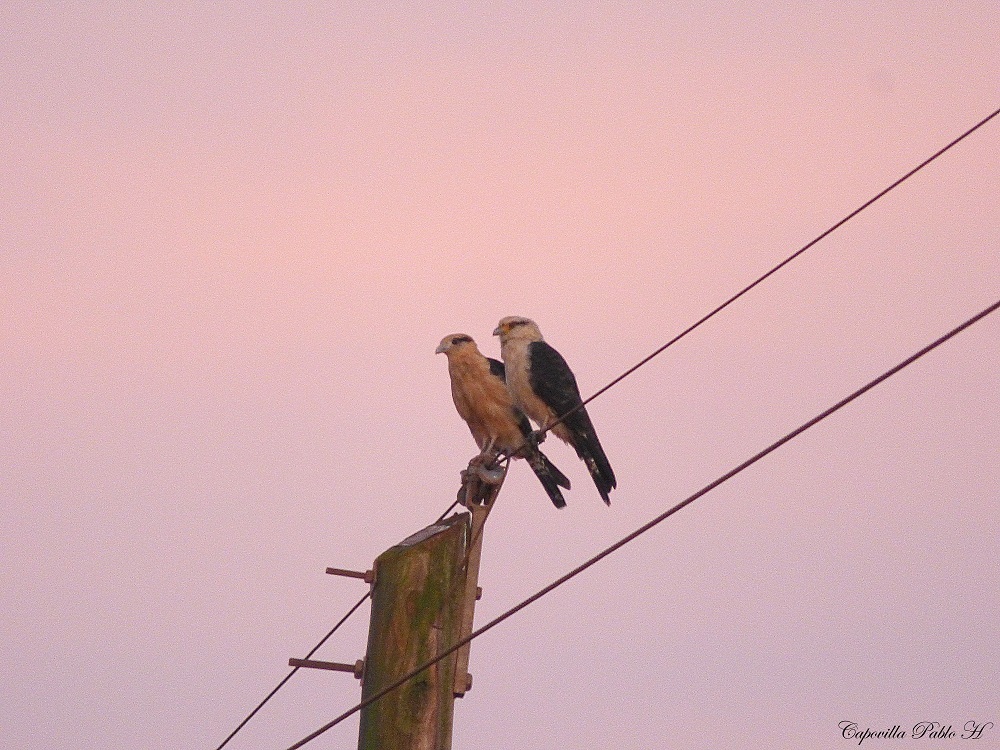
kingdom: Animalia
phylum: Chordata
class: Aves
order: Falconiformes
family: Falconidae
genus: Daptrius
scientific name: Daptrius
